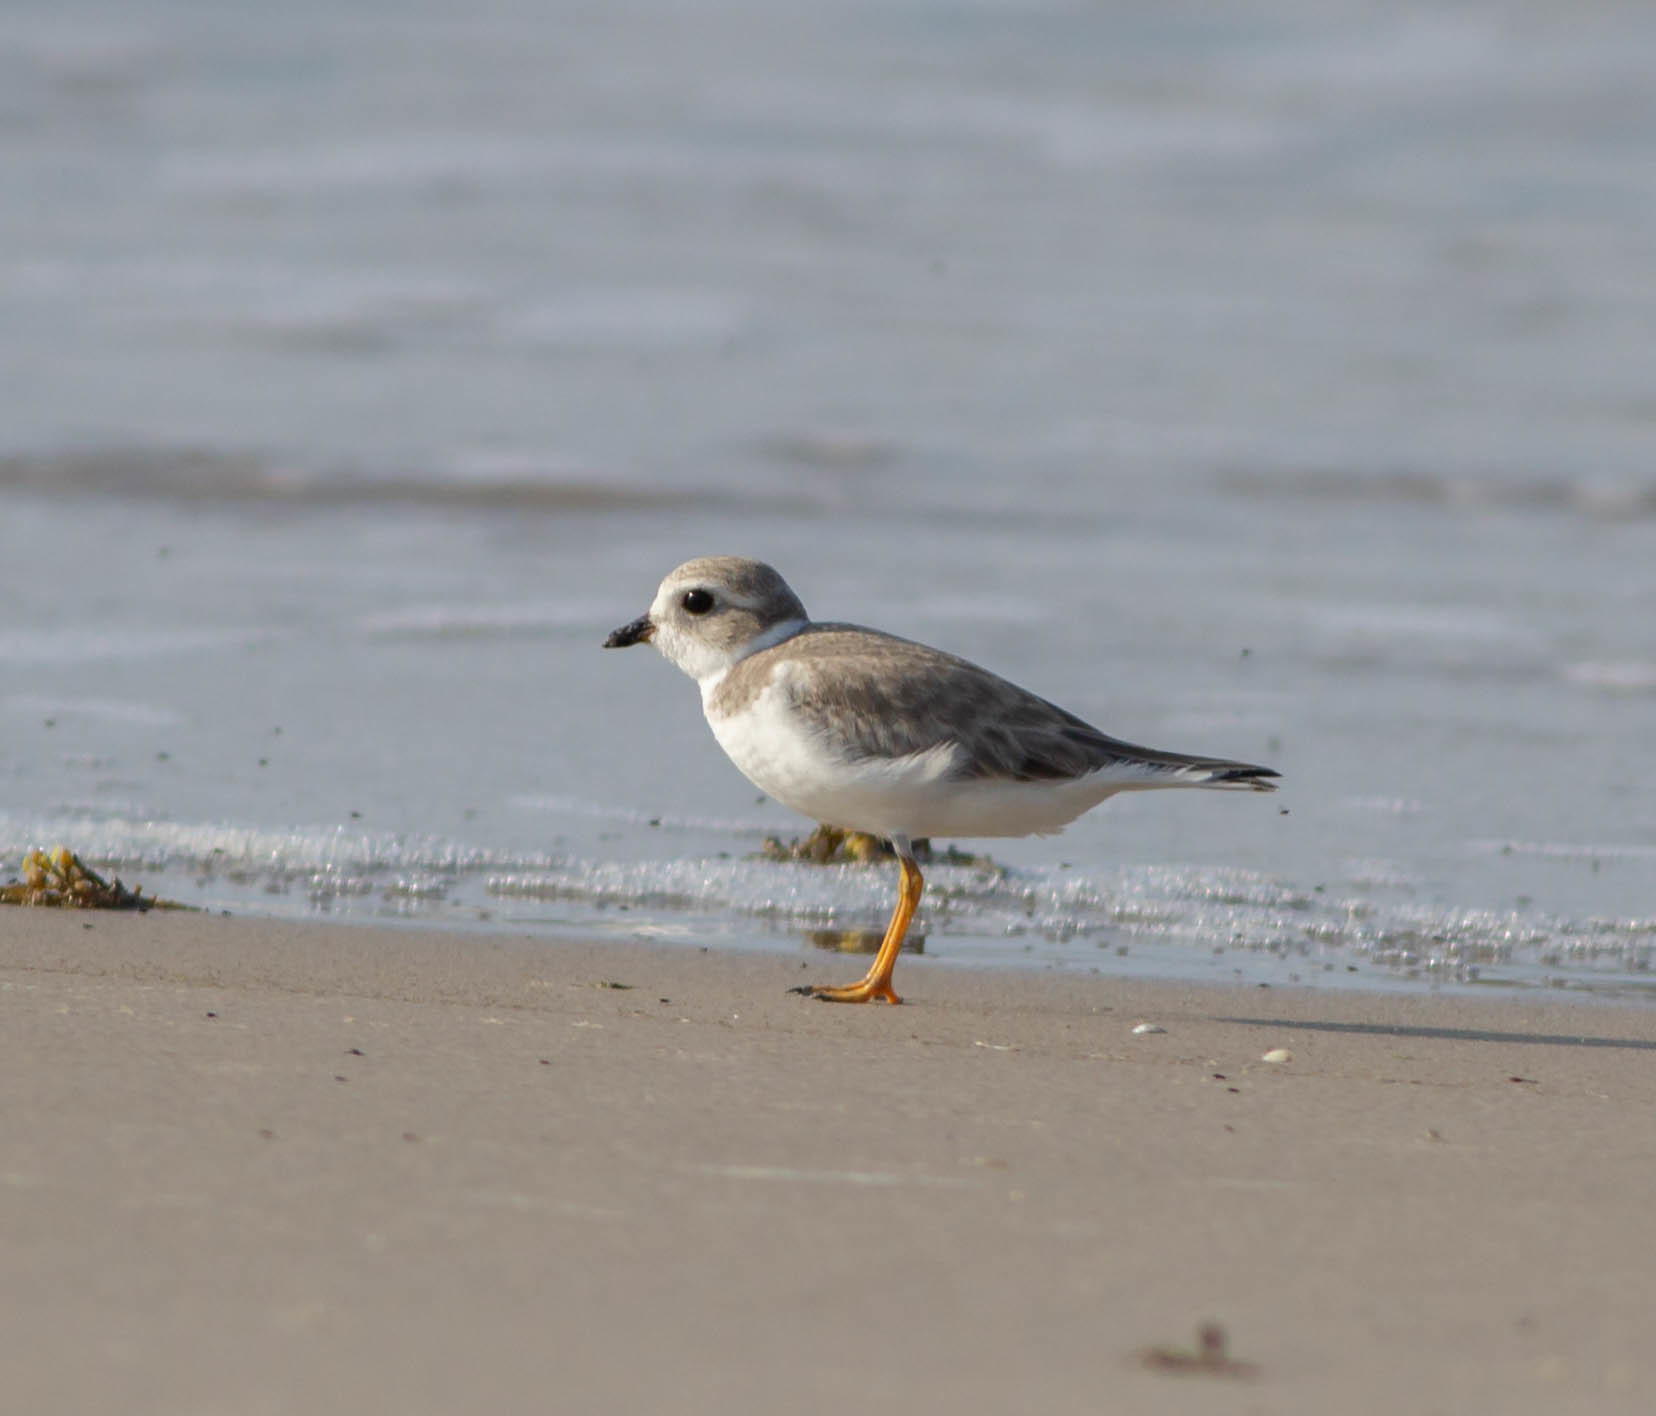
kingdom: Animalia
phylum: Chordata
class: Aves
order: Charadriiformes
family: Charadriidae
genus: Charadrius
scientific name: Charadrius melodus
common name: Piping plover
